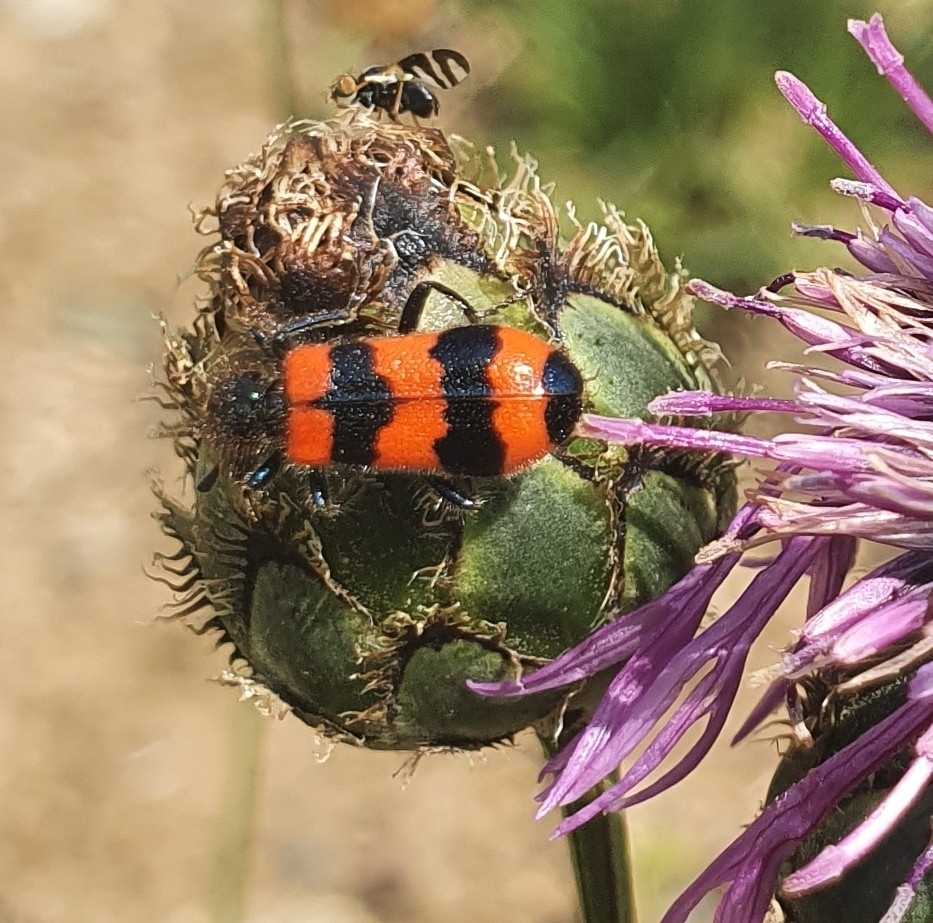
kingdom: Animalia
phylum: Arthropoda
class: Insecta
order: Coleoptera
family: Cleridae
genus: Trichodes
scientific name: Trichodes apiarius
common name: Bee-eating beetle
